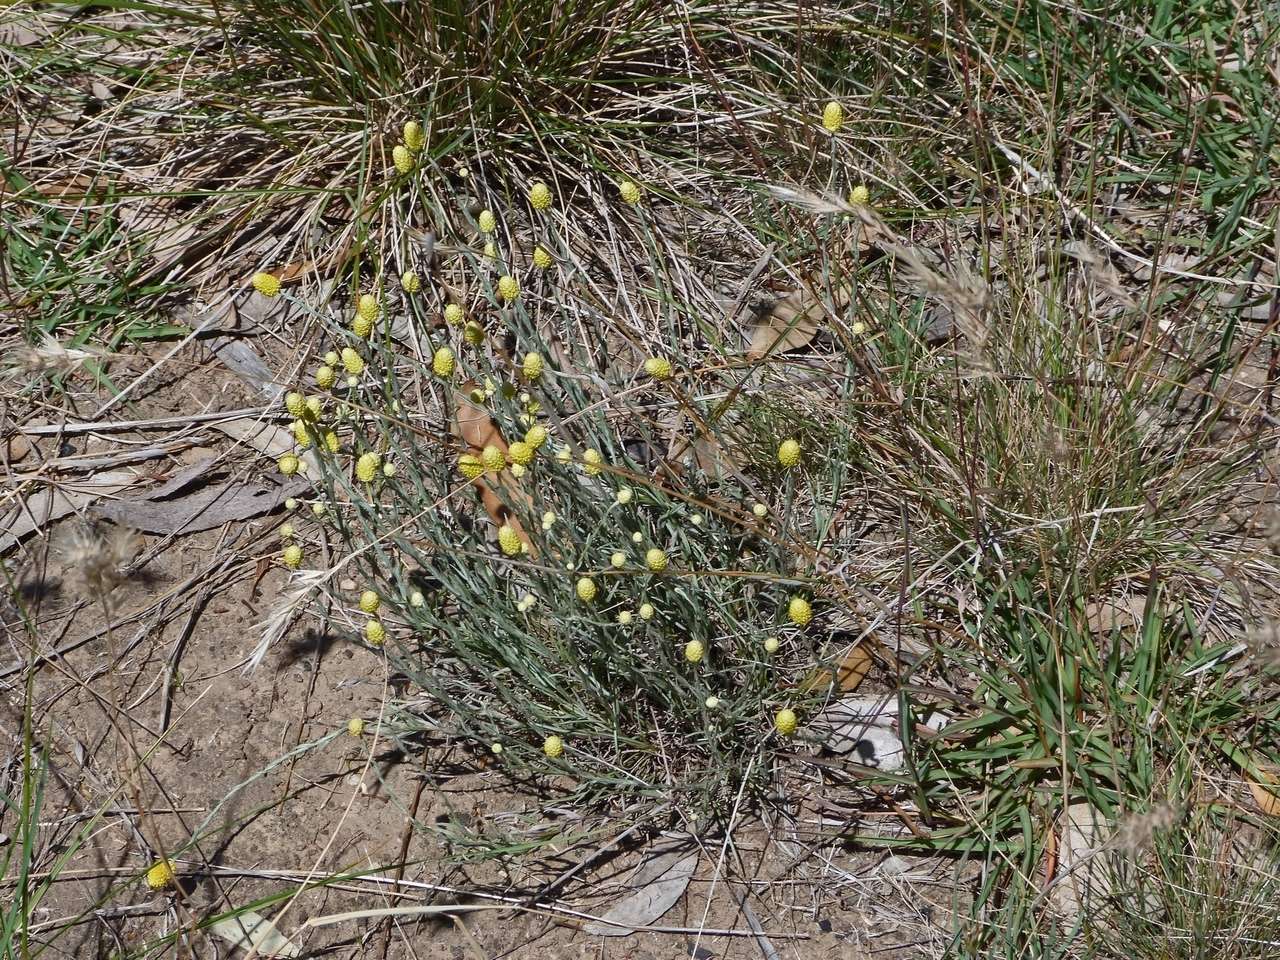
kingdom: Plantae
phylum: Tracheophyta
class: Magnoliopsida
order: Asterales
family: Asteraceae
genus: Calocephalus
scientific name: Calocephalus citreus
